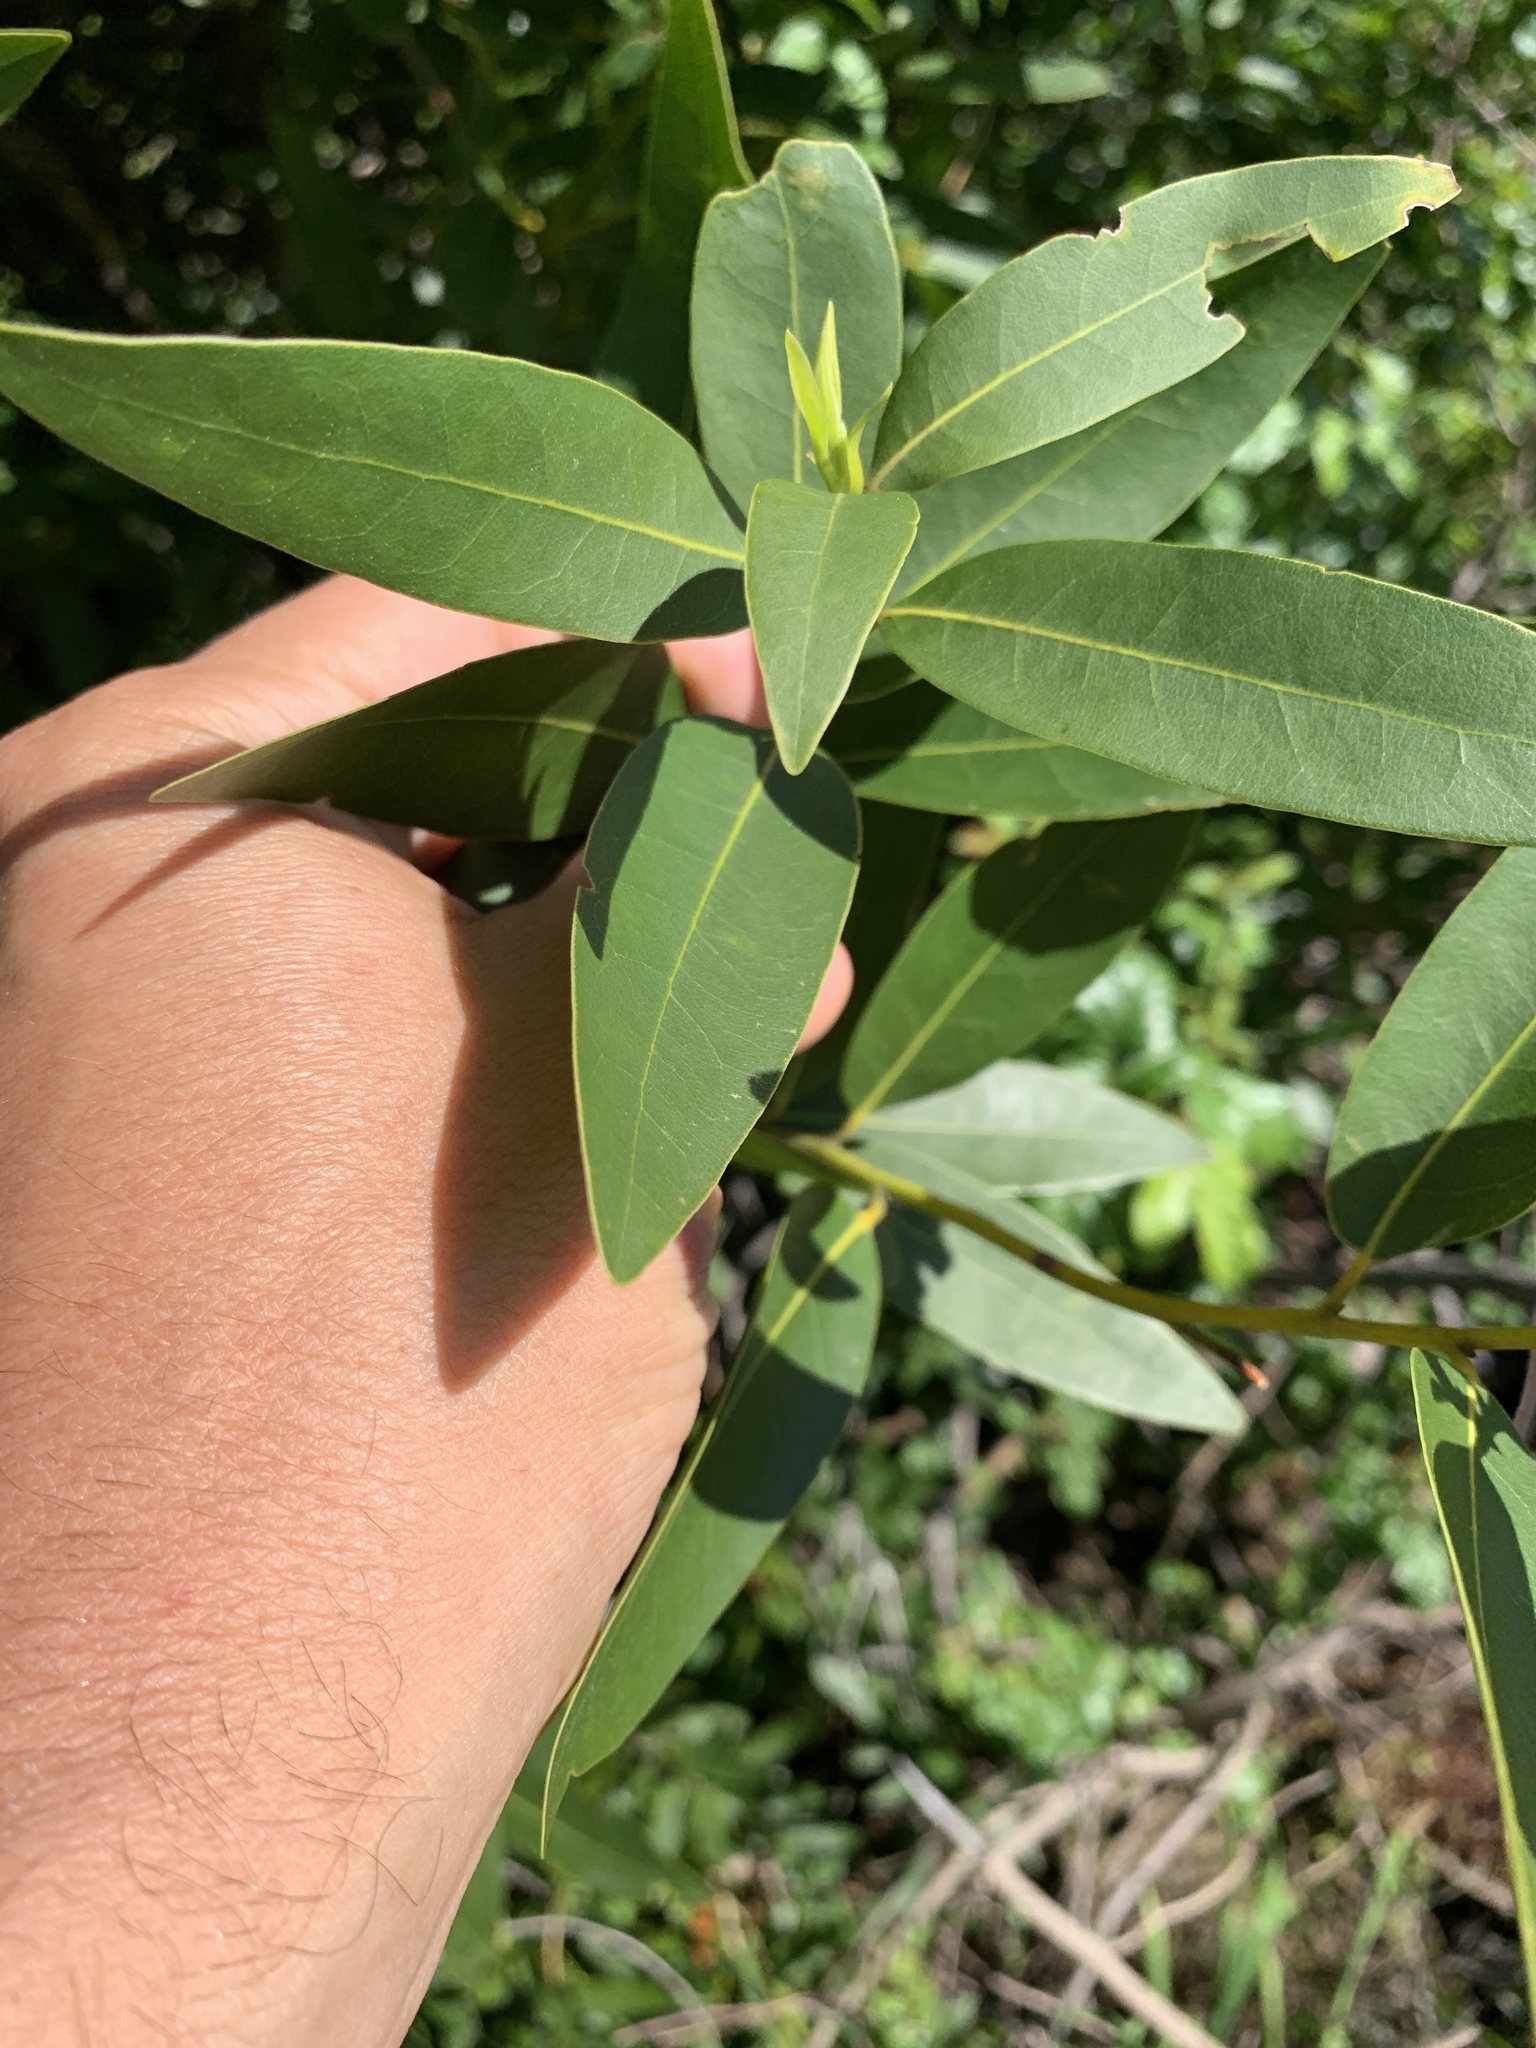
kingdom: Plantae
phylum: Tracheophyta
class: Magnoliopsida
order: Laurales
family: Lauraceae
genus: Umbellularia
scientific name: Umbellularia californica
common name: California bay
